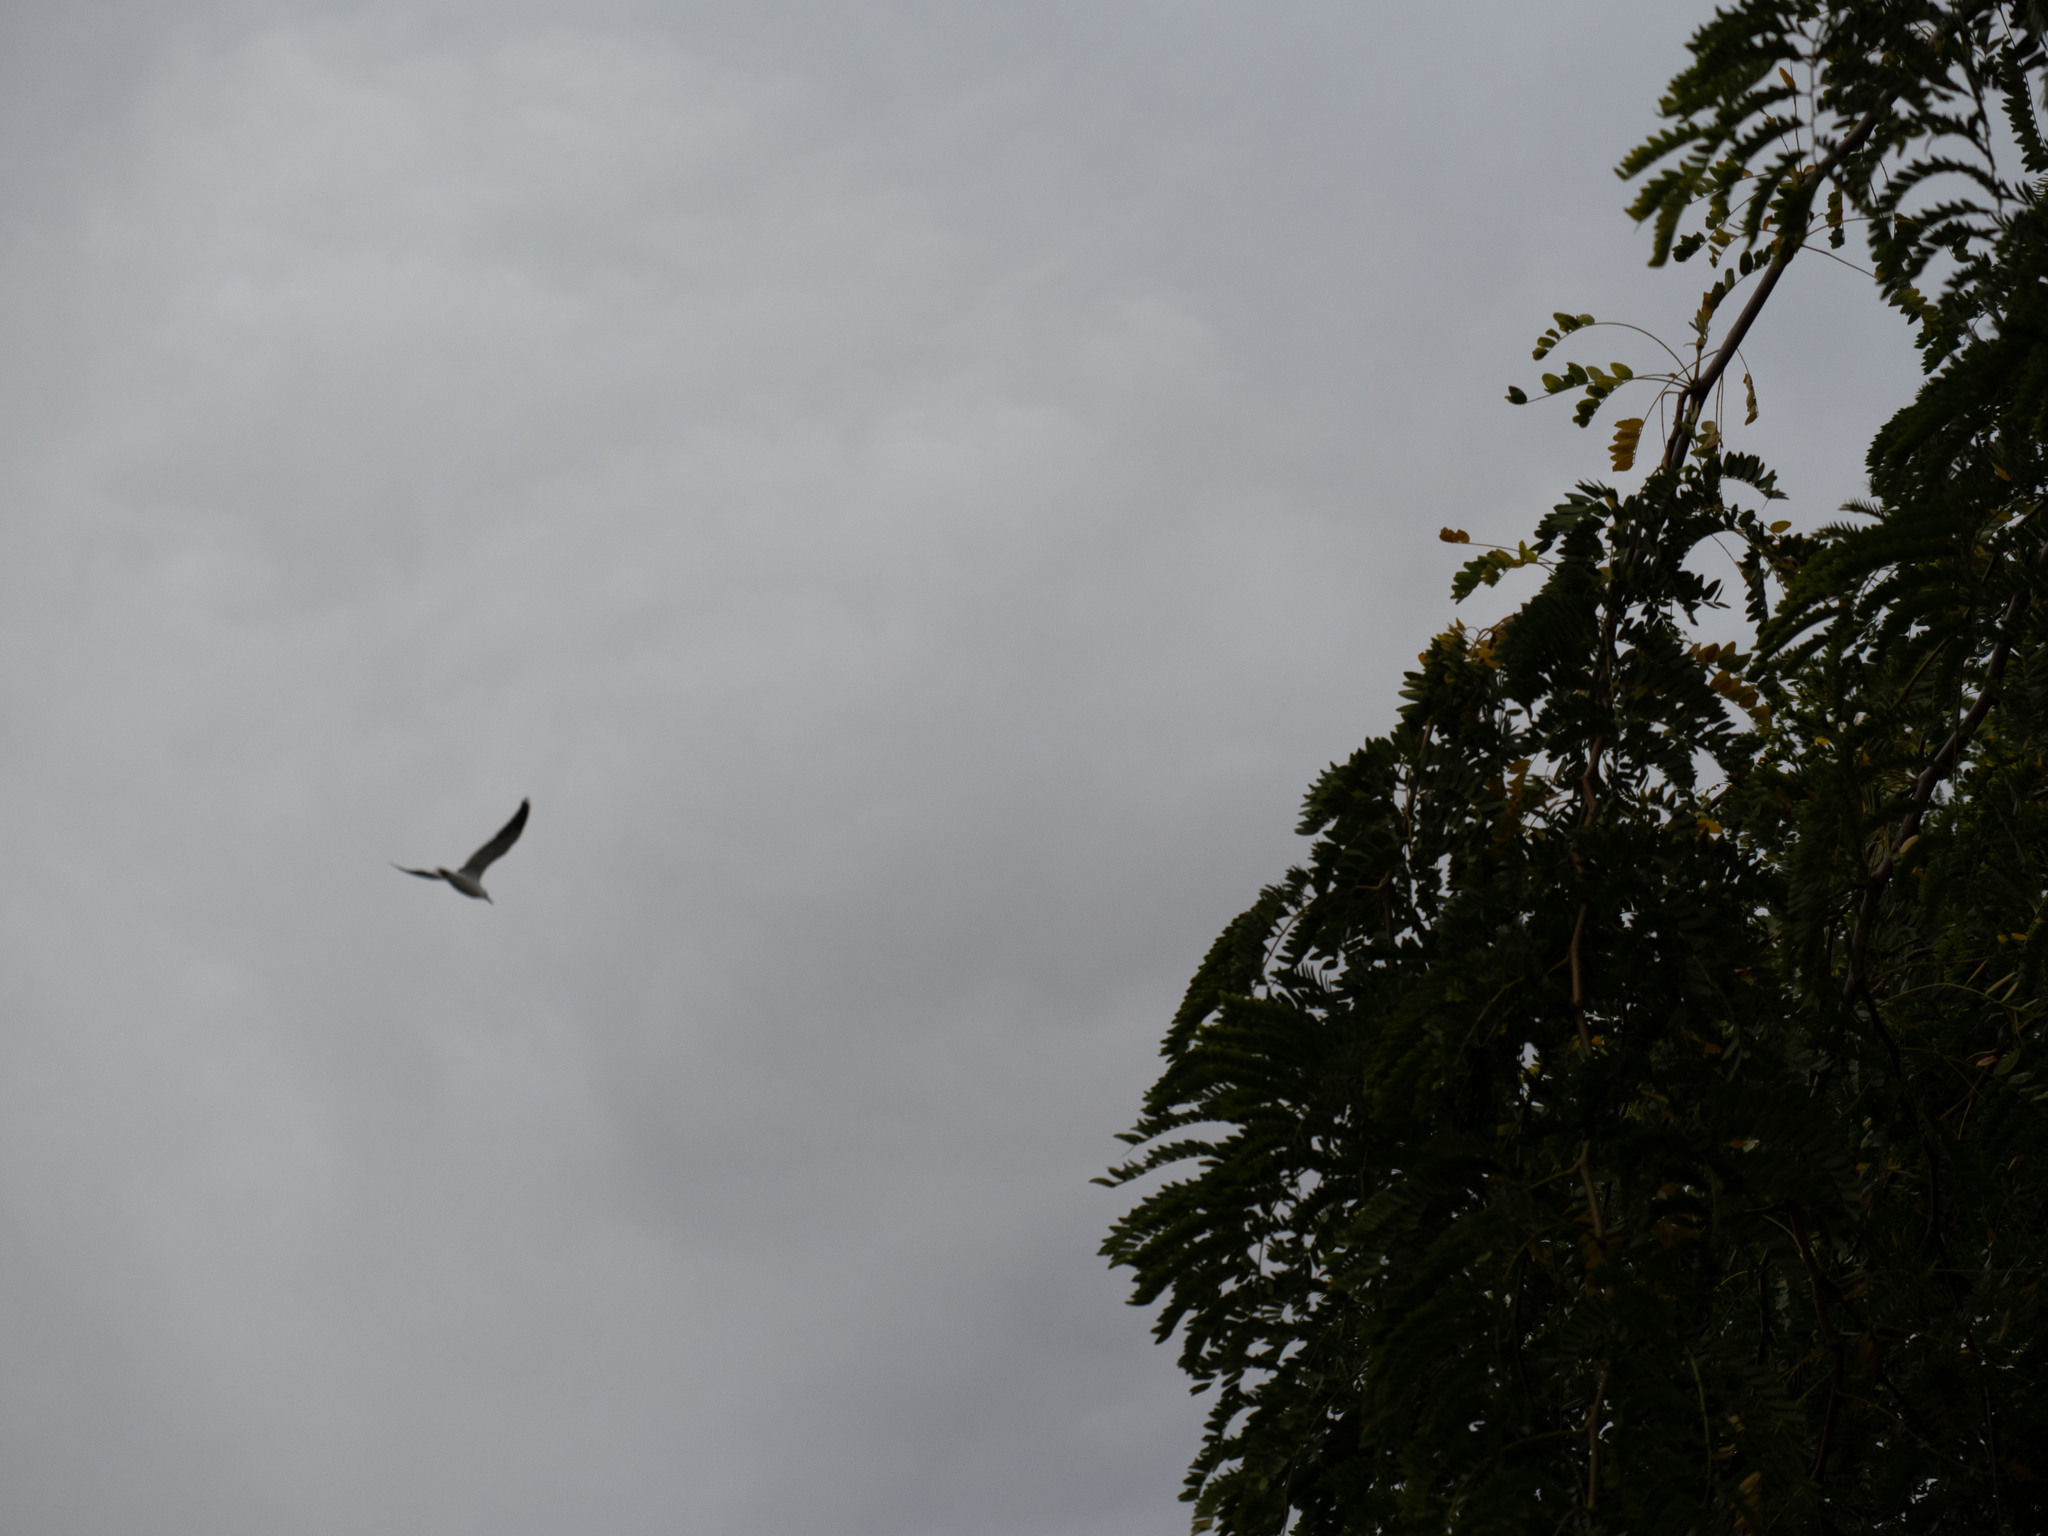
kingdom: Animalia
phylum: Chordata
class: Aves
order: Charadriiformes
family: Laridae
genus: Larus
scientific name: Larus dominicanus
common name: Kelp gull
